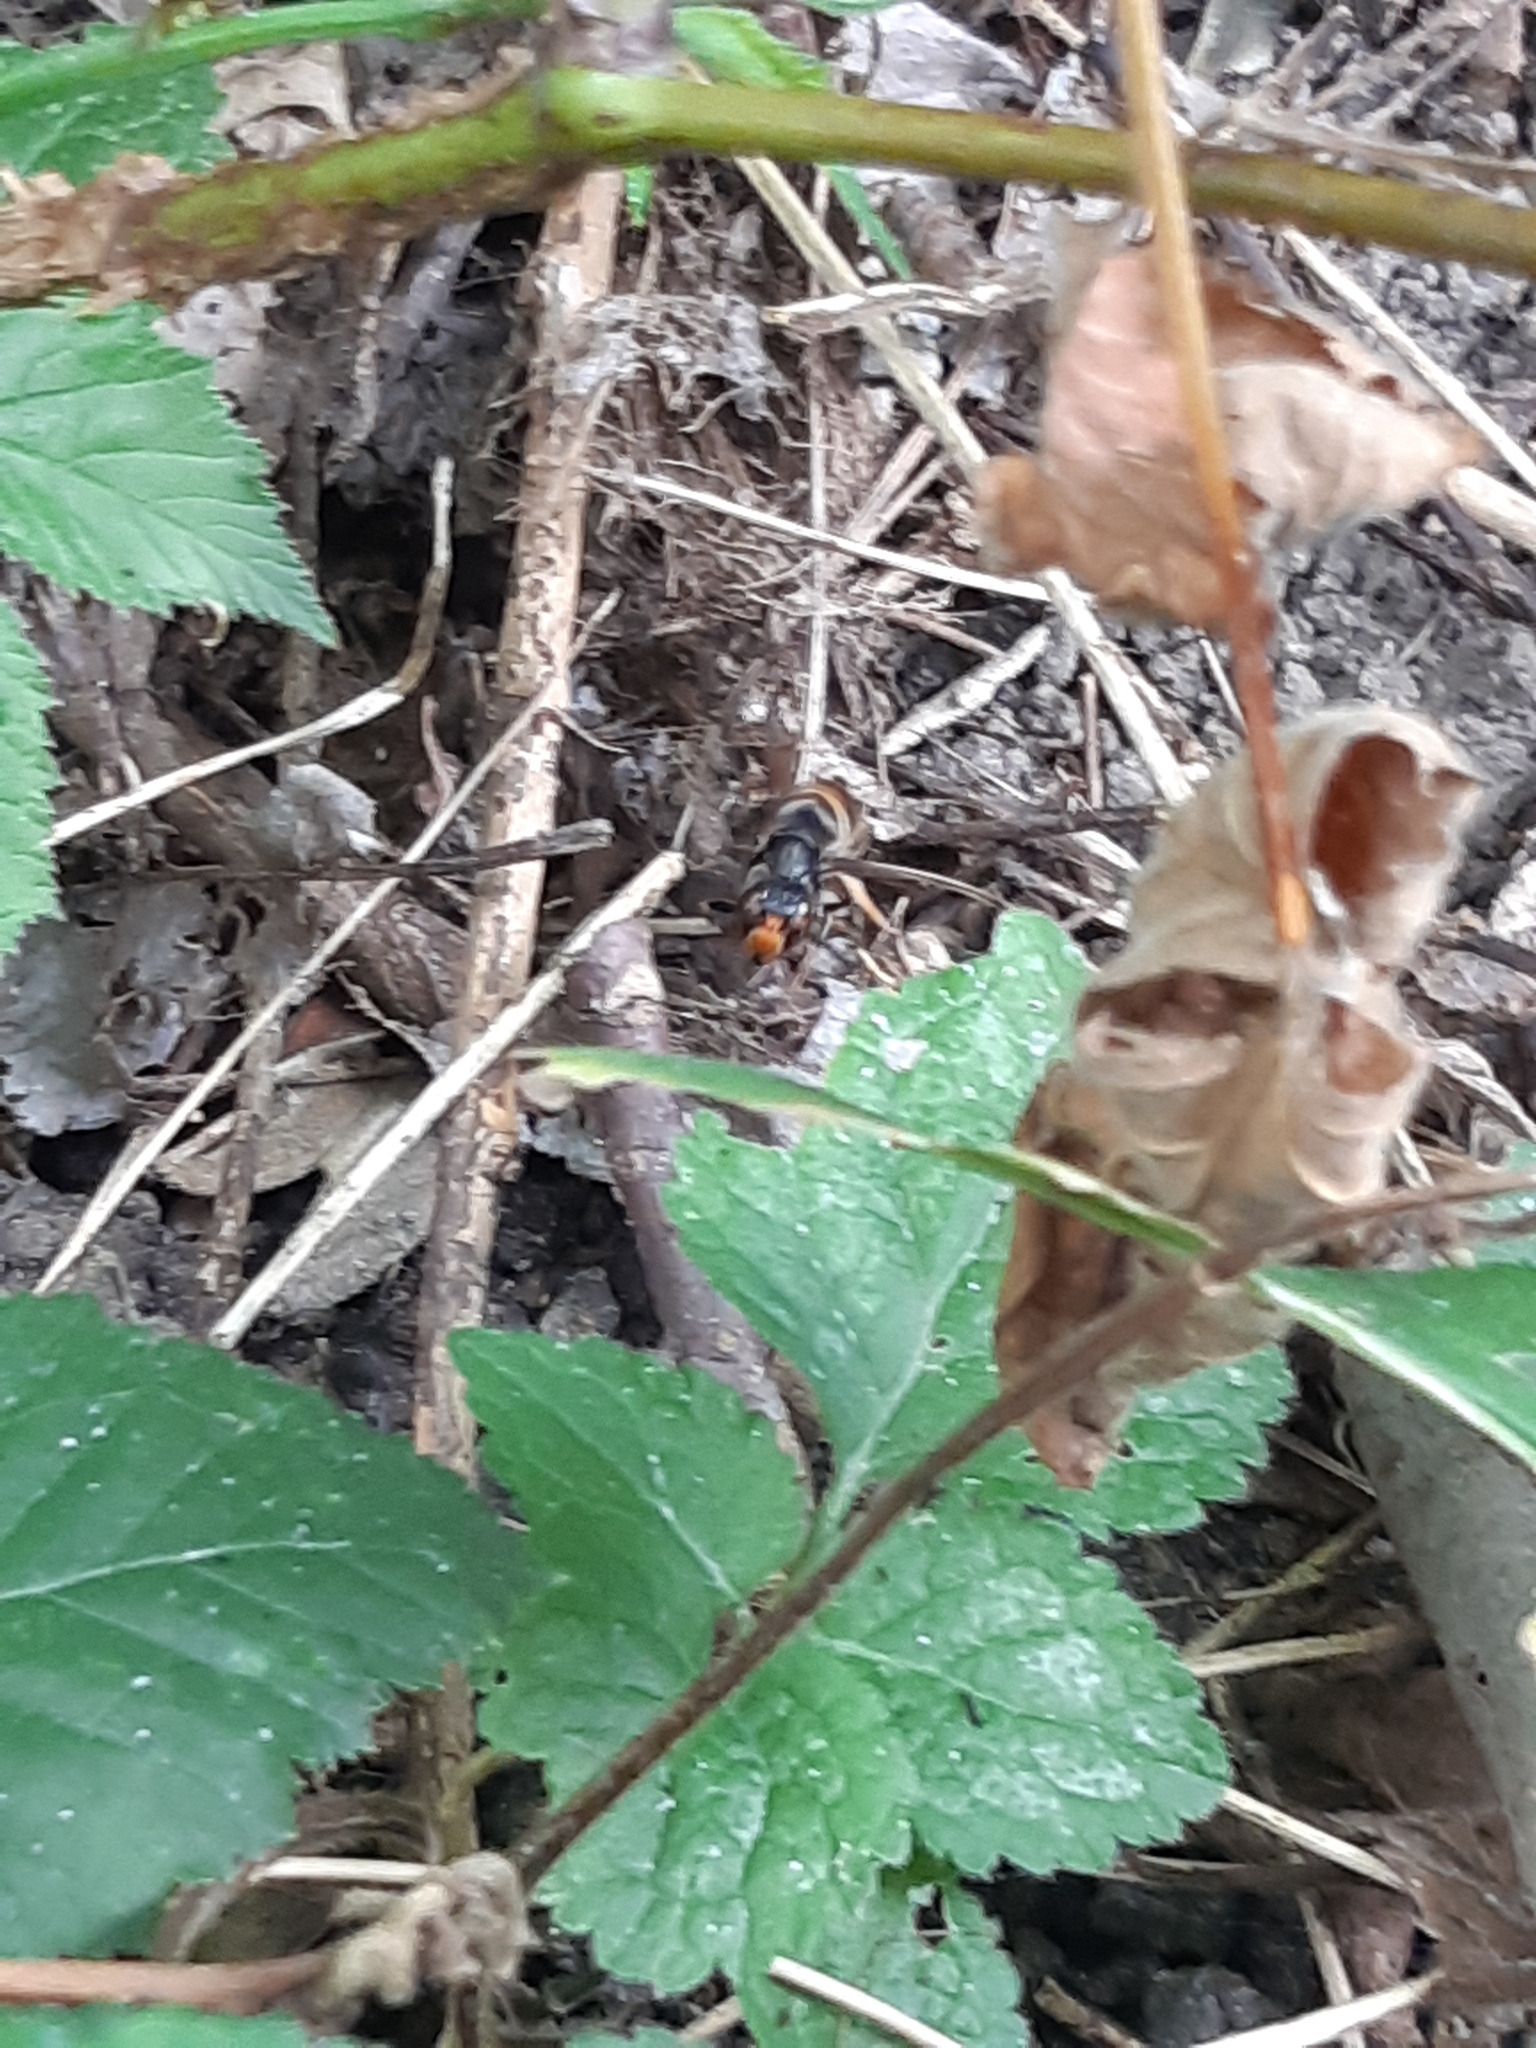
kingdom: Animalia
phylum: Arthropoda
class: Insecta
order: Hymenoptera
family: Vespidae
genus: Vespa
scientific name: Vespa velutina
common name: Asian hornet
